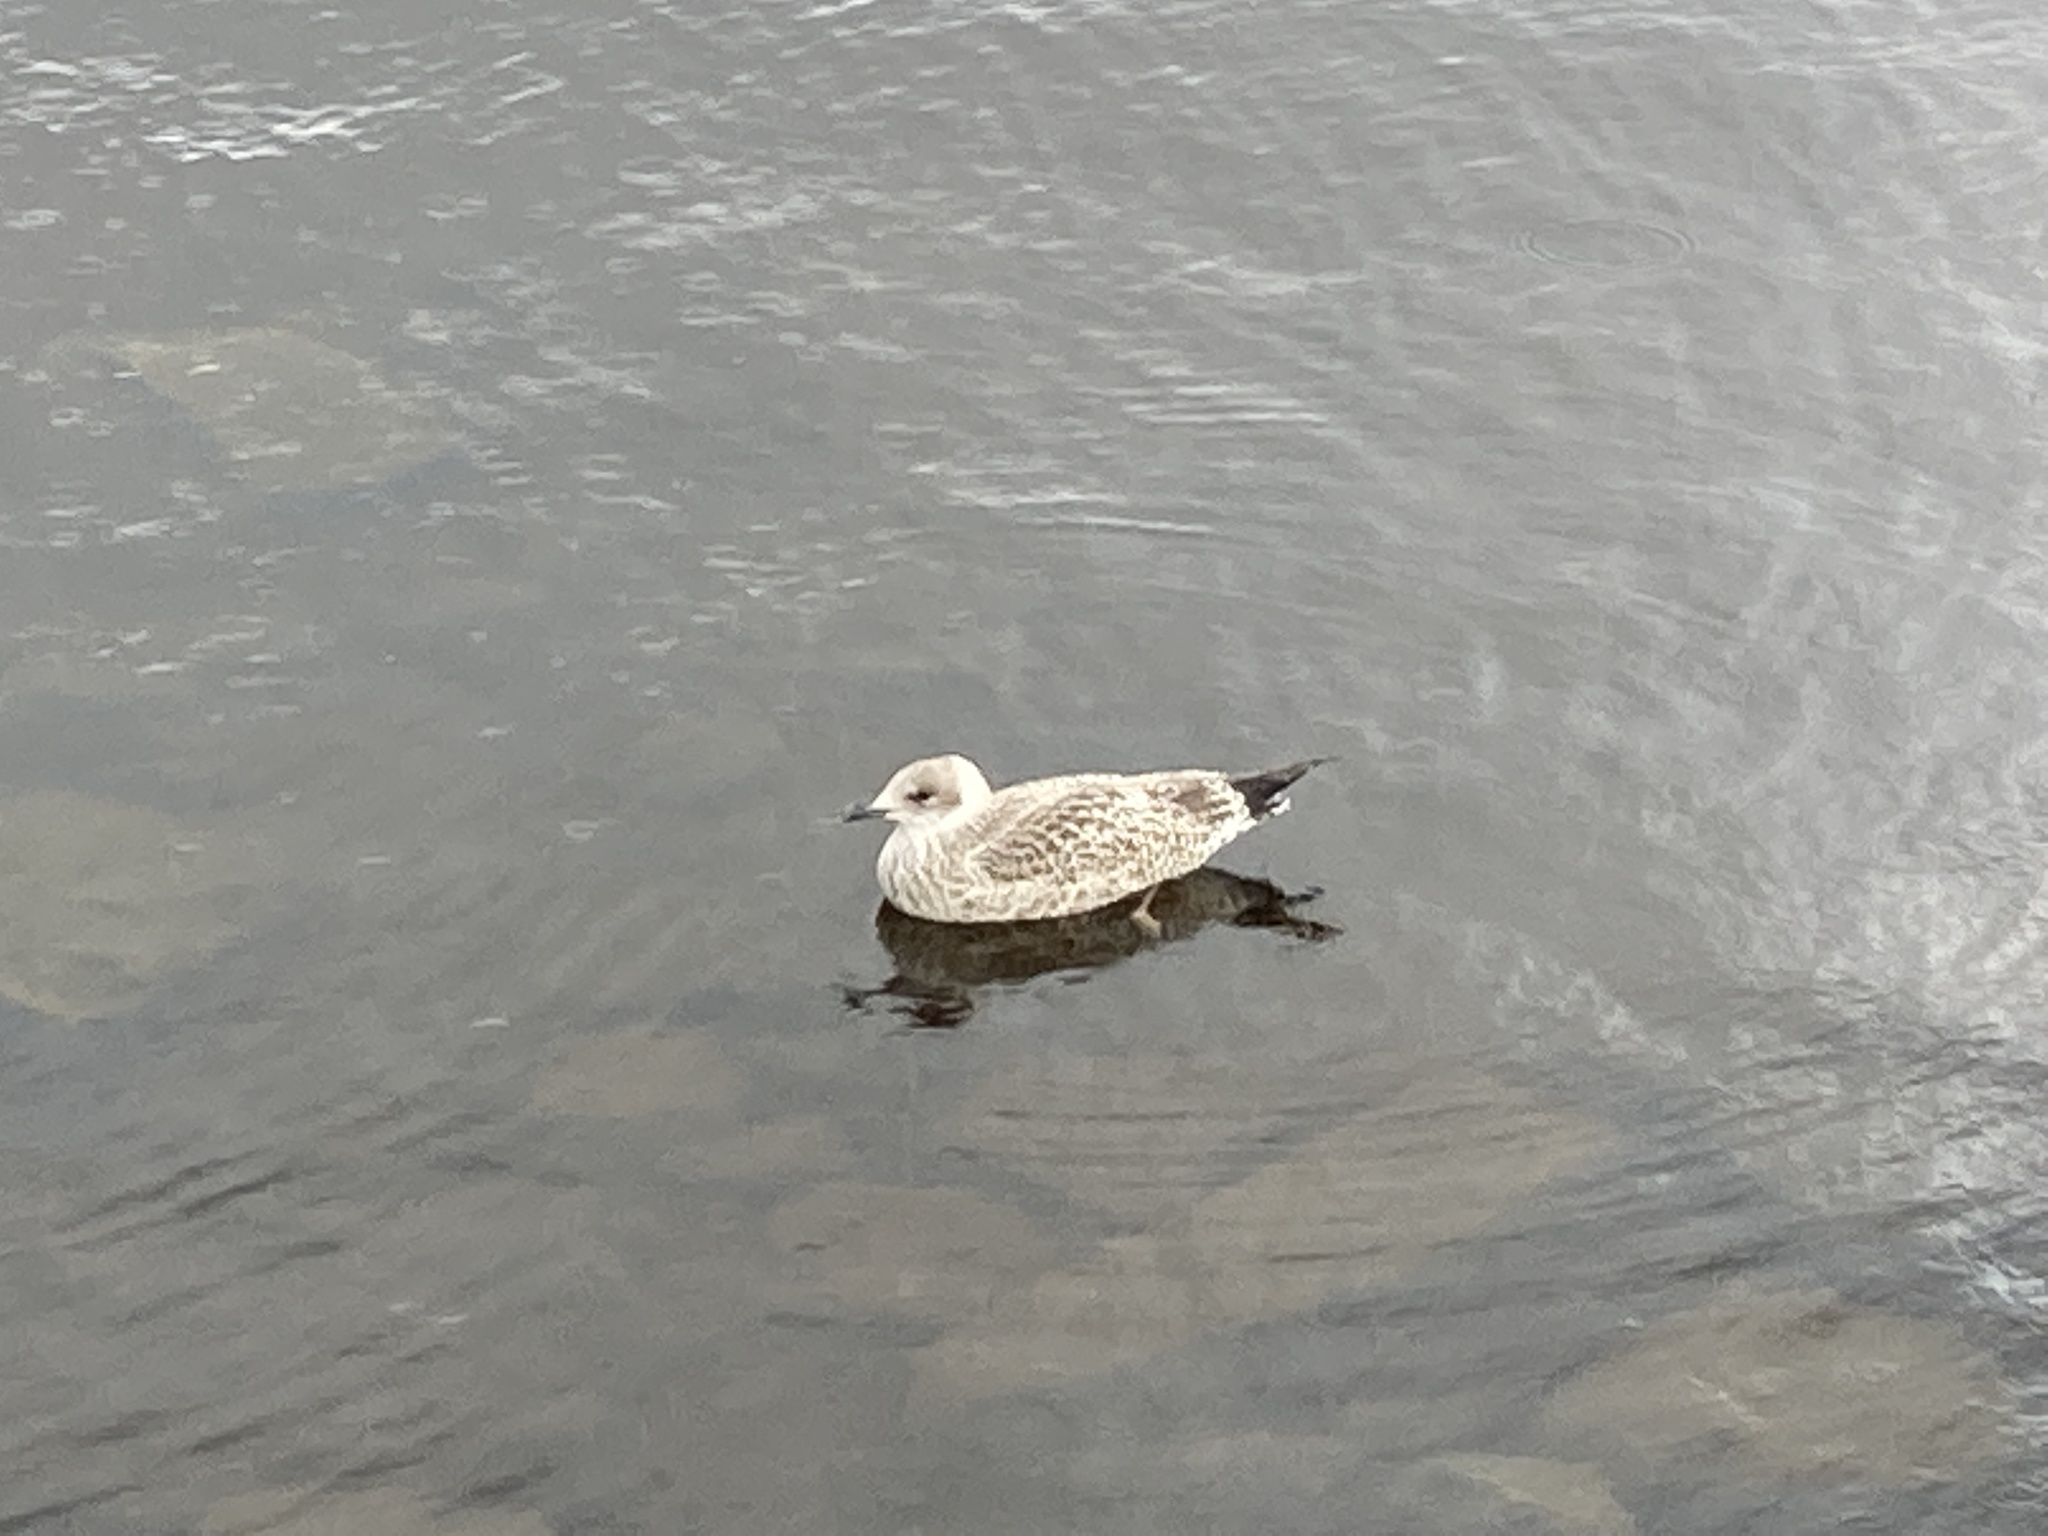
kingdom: Animalia
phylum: Chordata
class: Aves
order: Charadriiformes
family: Laridae
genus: Larus
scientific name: Larus argentatus
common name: Herring gull
